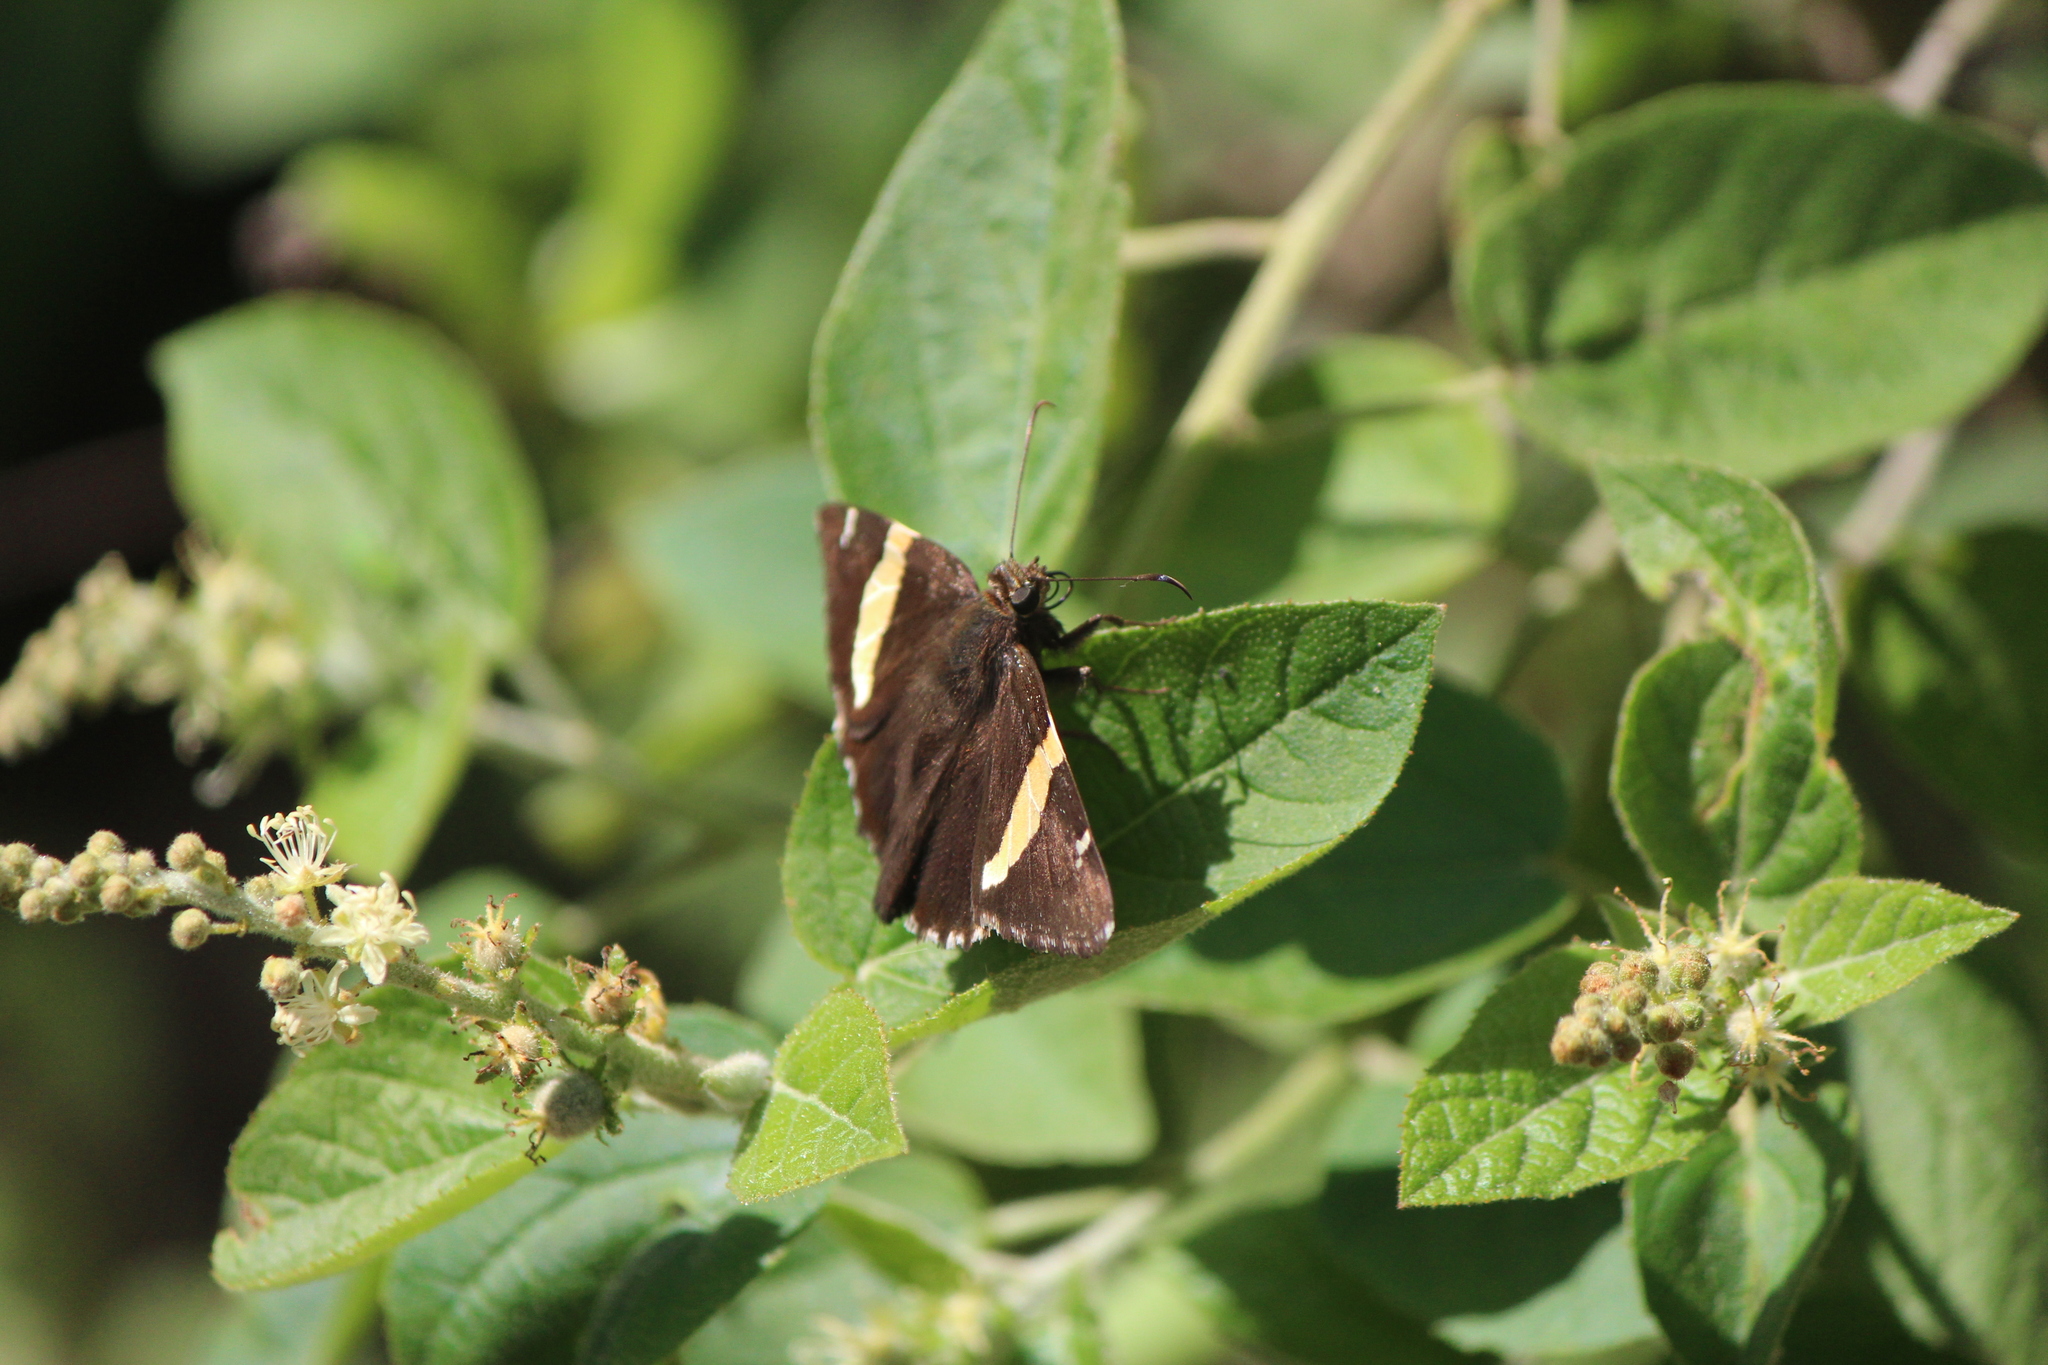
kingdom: Animalia
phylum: Arthropoda
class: Arachnida
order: Scorpiones
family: Bothriuridae
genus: Telegonus
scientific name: Telegonus cellus
